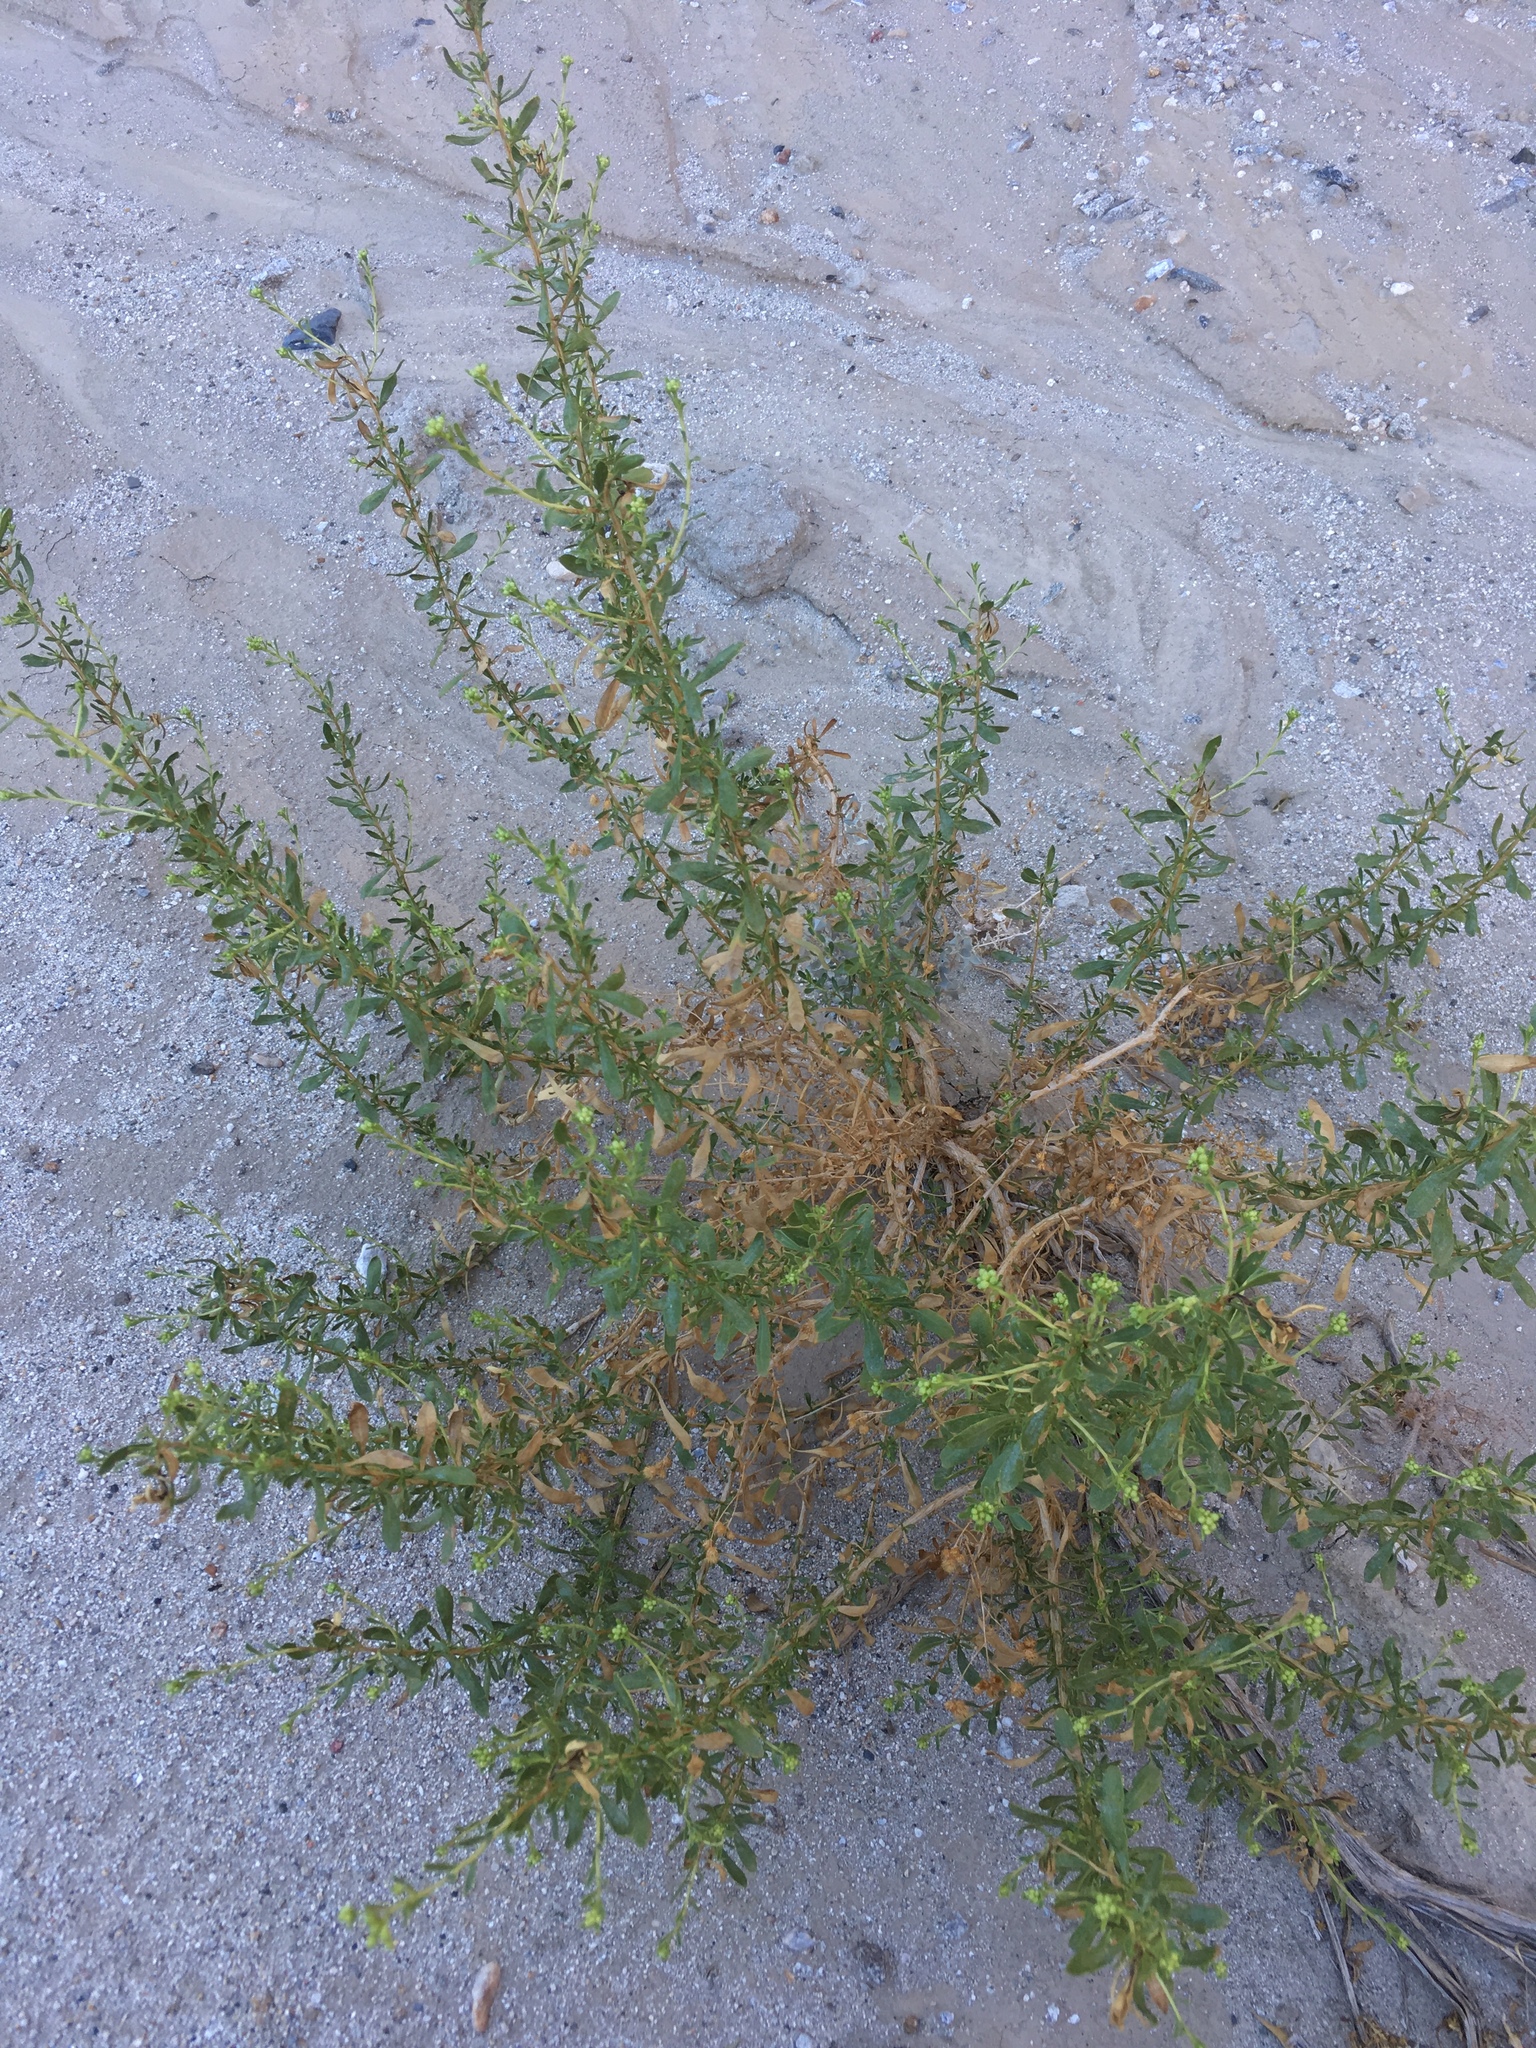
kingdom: Plantae
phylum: Tracheophyta
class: Magnoliopsida
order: Asterales
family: Asteraceae
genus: Isocoma
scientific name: Isocoma acradenia
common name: Alkali jimmyweed
